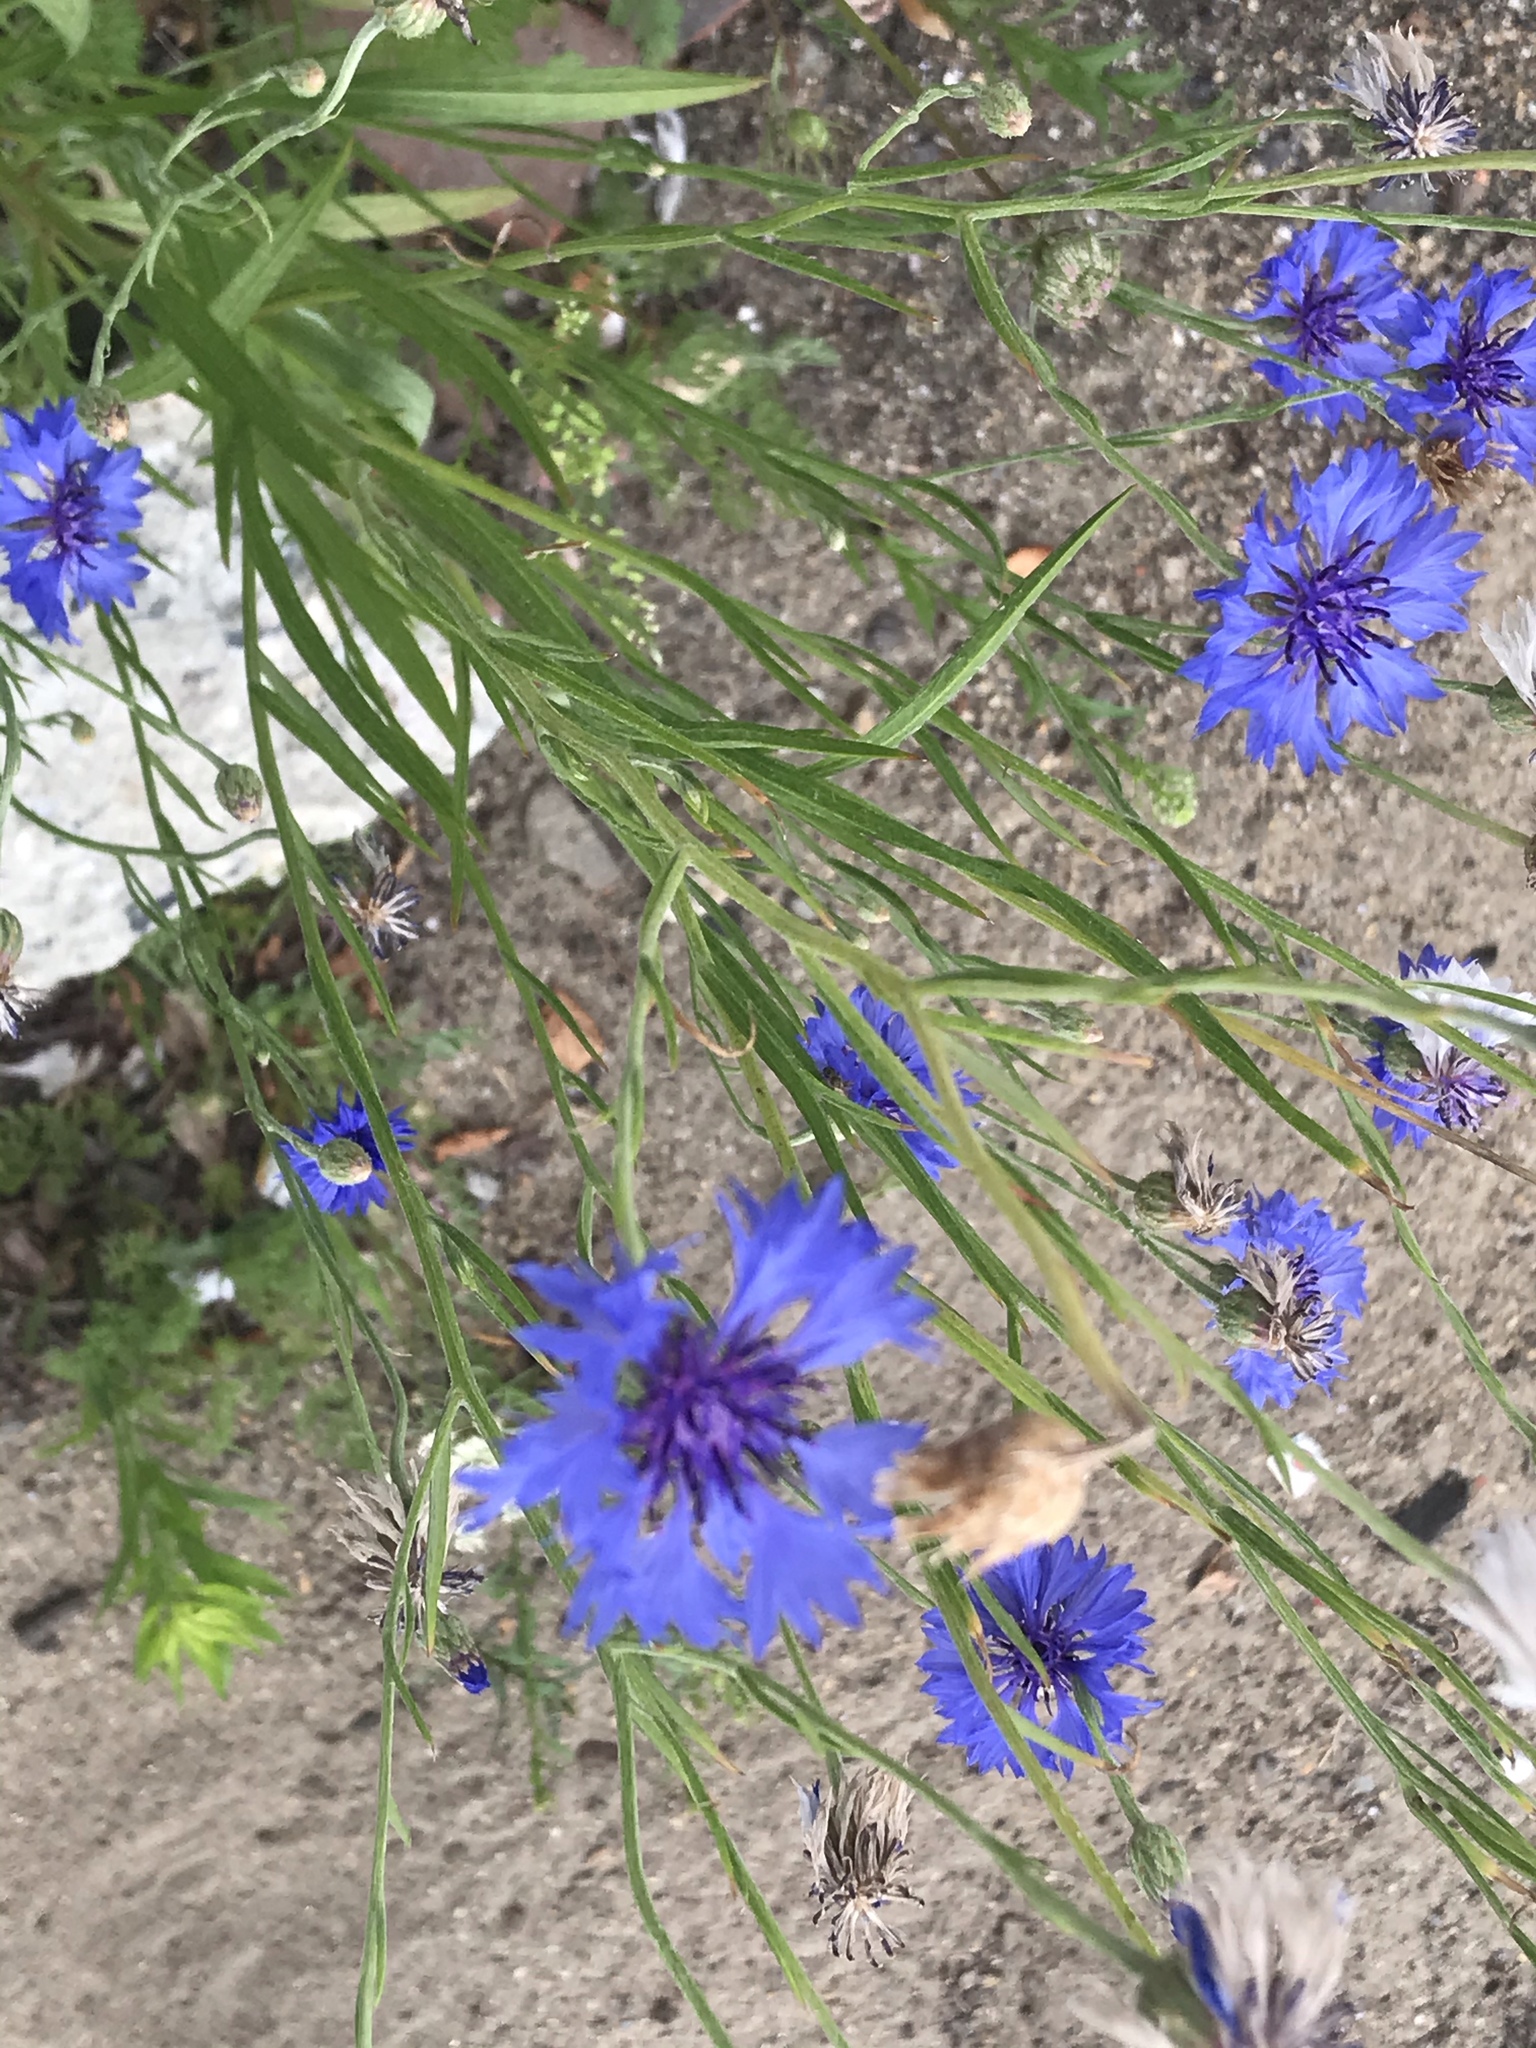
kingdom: Plantae
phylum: Tracheophyta
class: Magnoliopsida
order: Asterales
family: Asteraceae
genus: Centaurea
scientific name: Centaurea cyanus
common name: Cornflower
